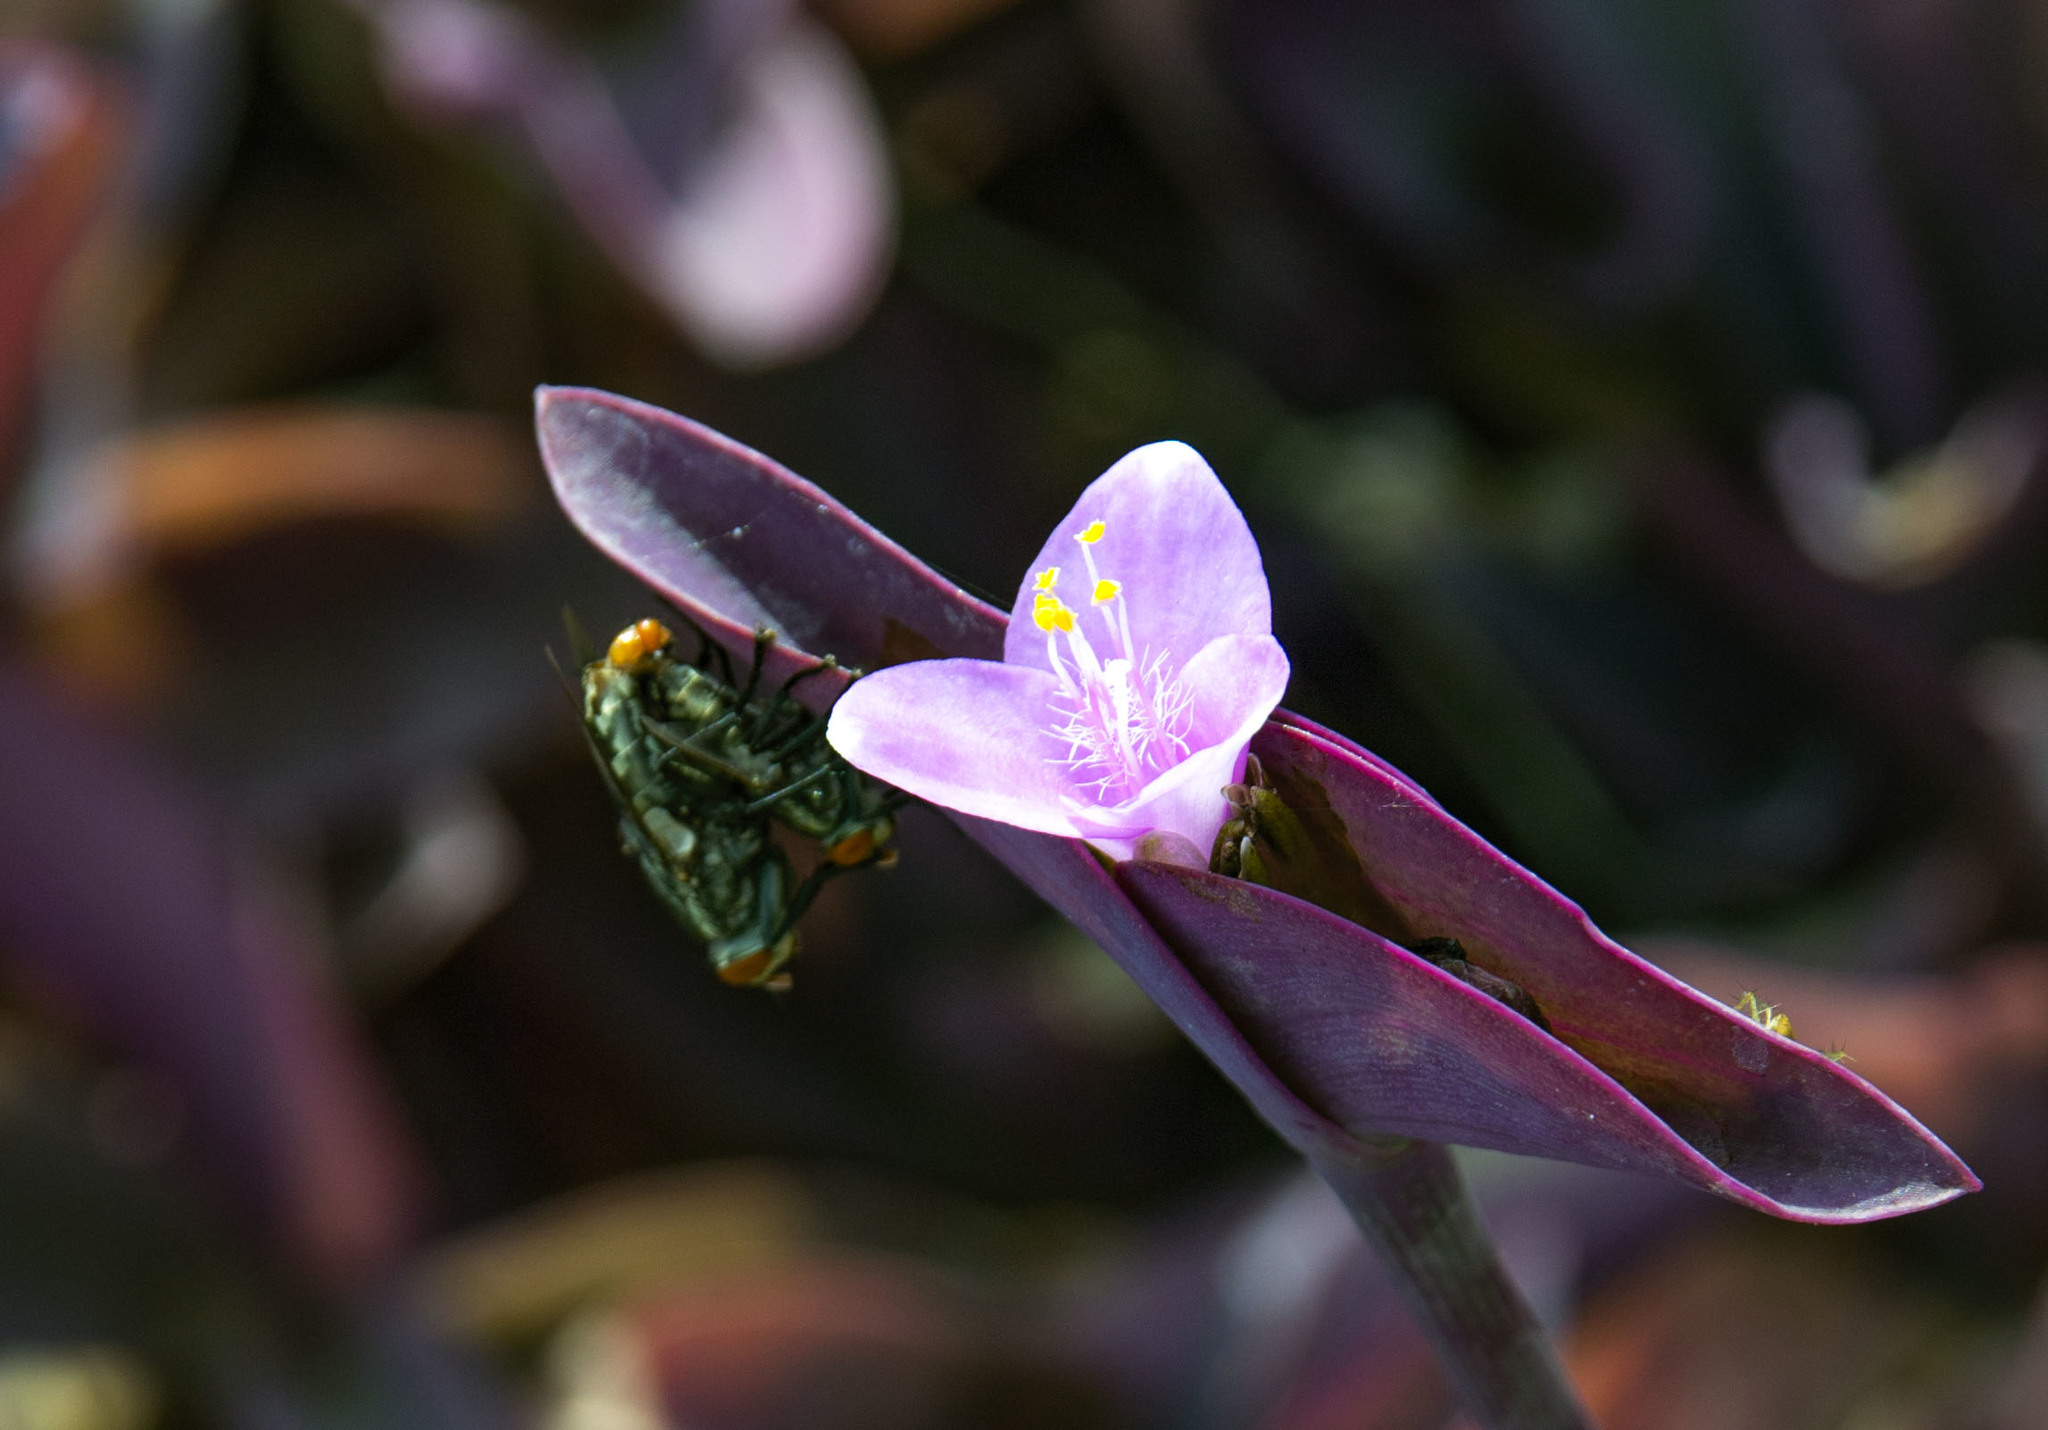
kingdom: Plantae
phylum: Tracheophyta
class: Liliopsida
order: Commelinales
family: Commelinaceae
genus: Tradescantia
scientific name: Tradescantia pallida
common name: Purpleheart
